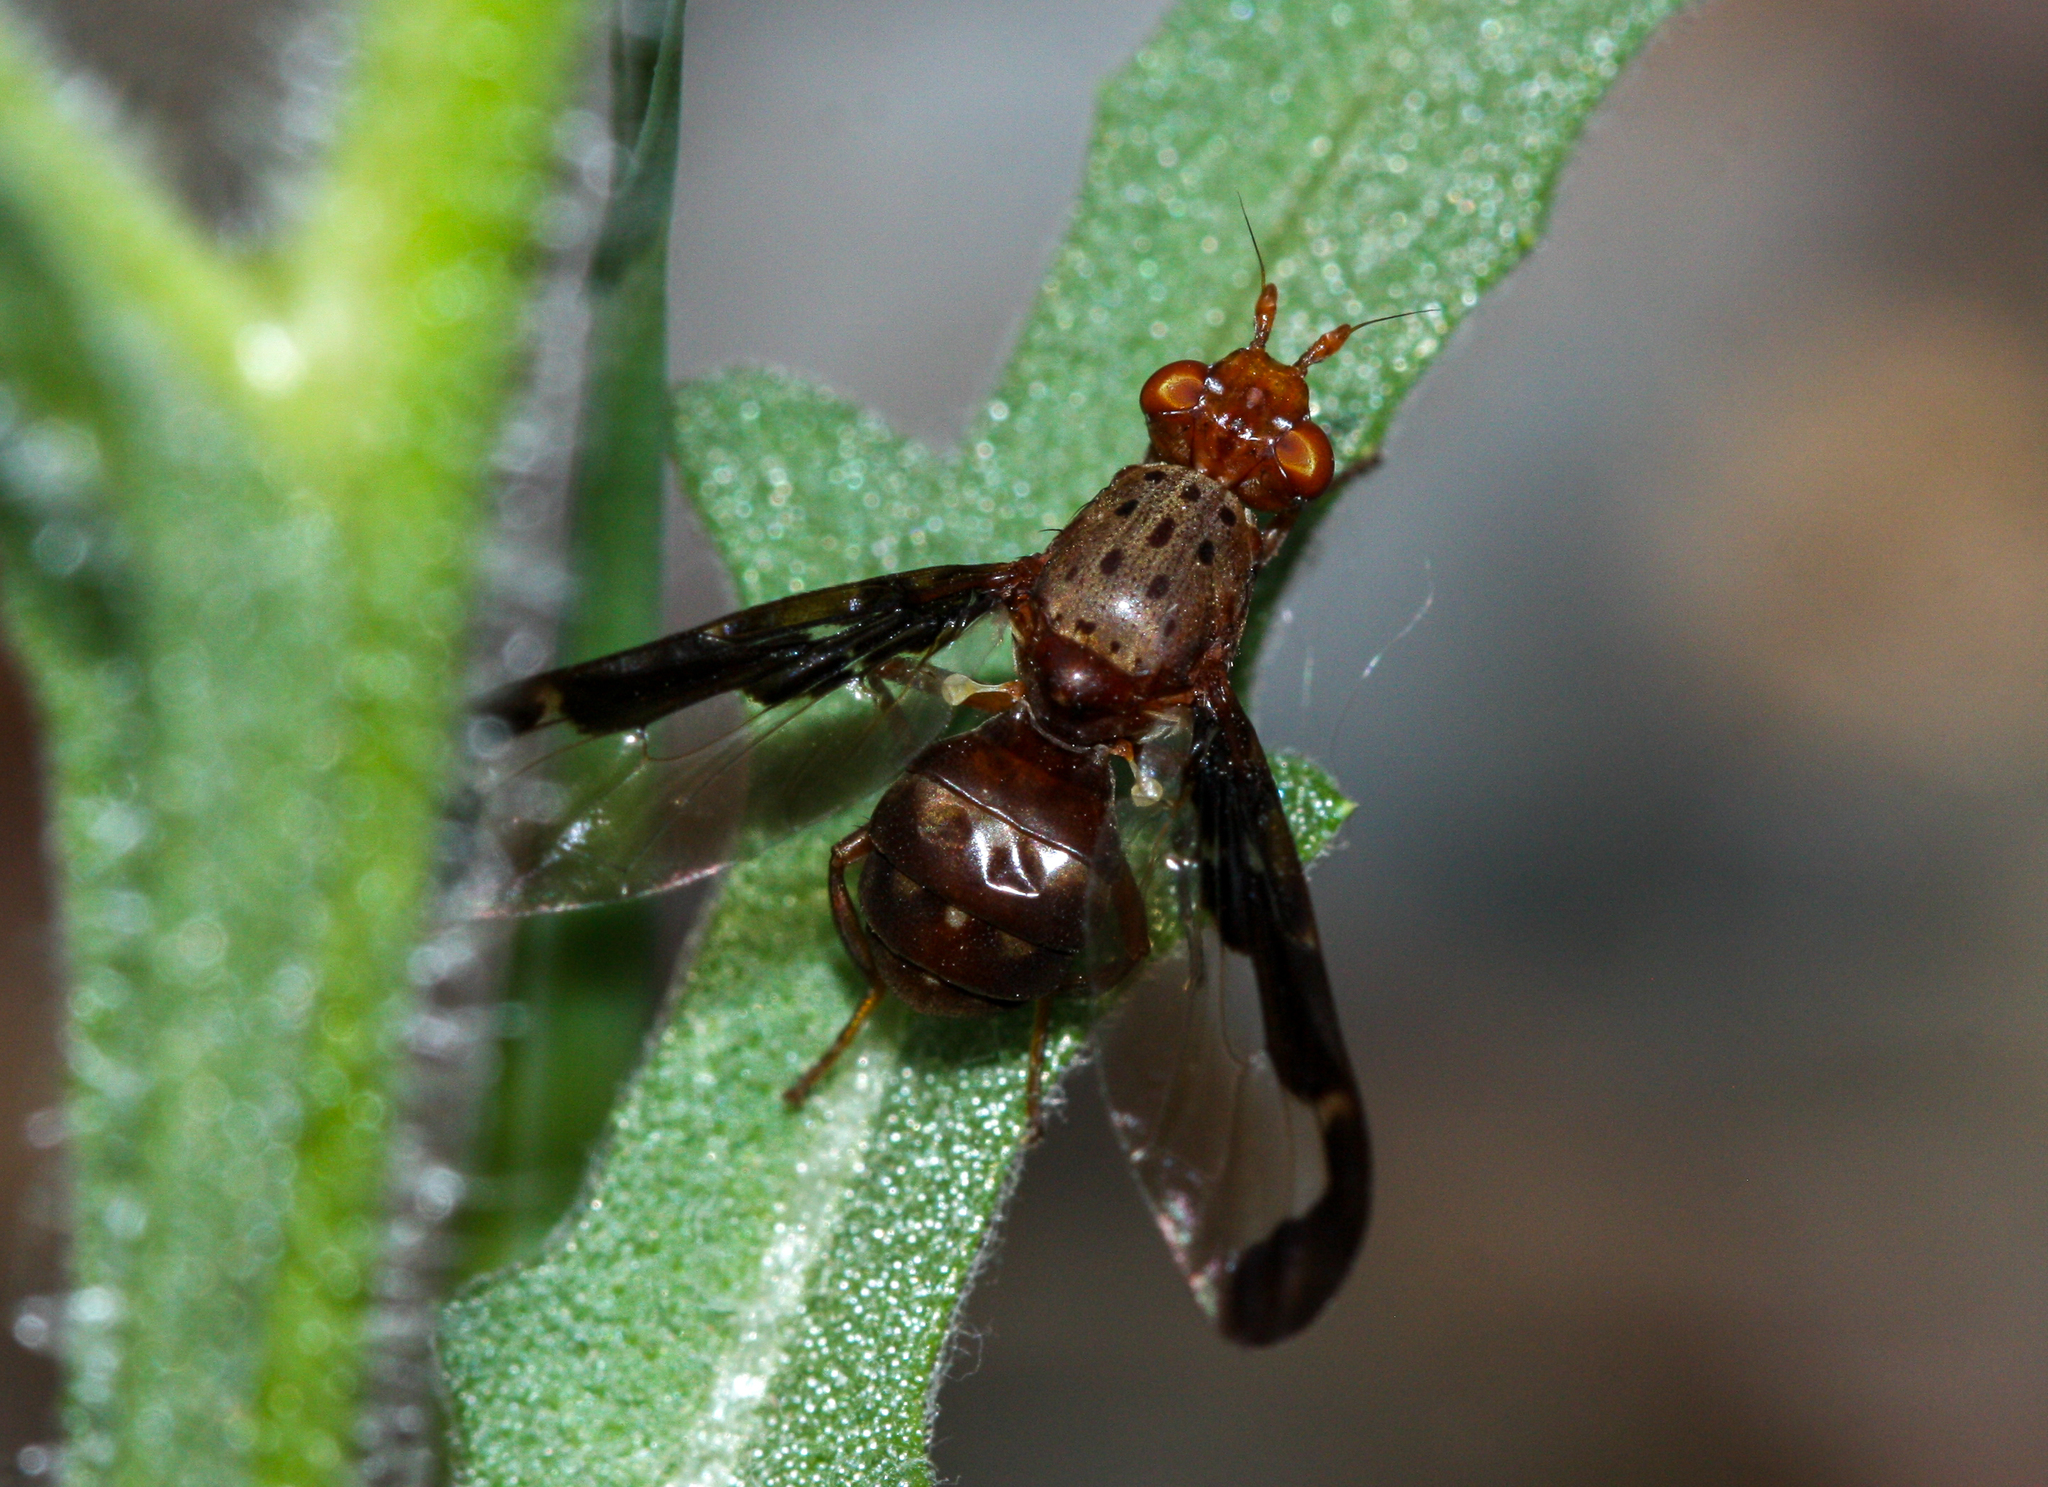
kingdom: Animalia
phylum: Arthropoda
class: Insecta
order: Diptera
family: Ulidiidae
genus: Diacrita
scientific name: Diacrita costalis
